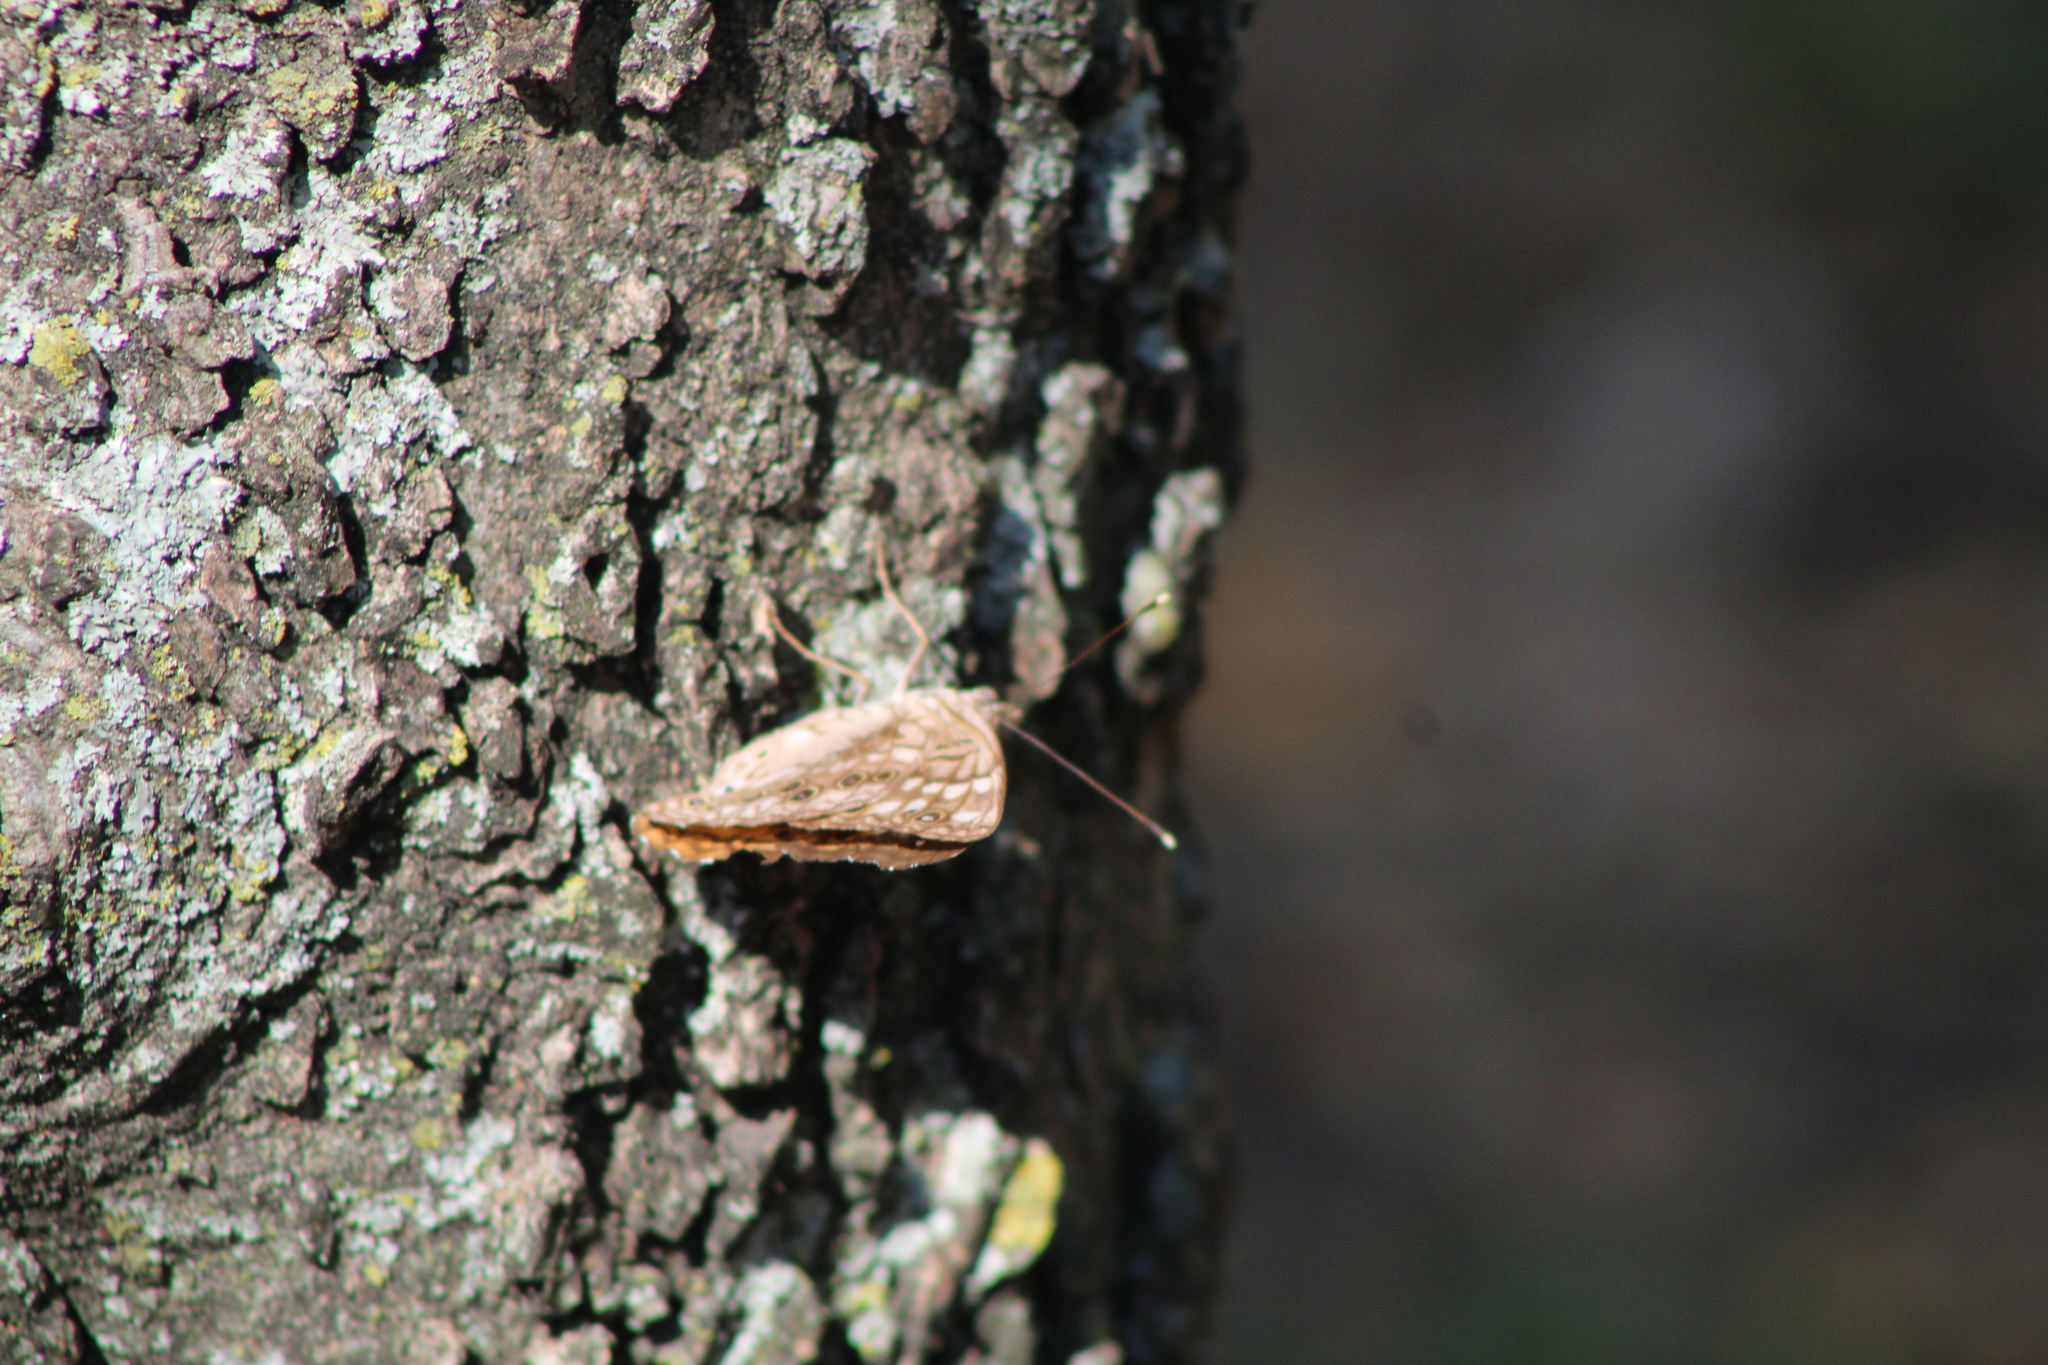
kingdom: Animalia
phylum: Arthropoda
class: Insecta
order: Lepidoptera
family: Nymphalidae
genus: Asterocampa
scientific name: Asterocampa celtis
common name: Hackberry emperor
